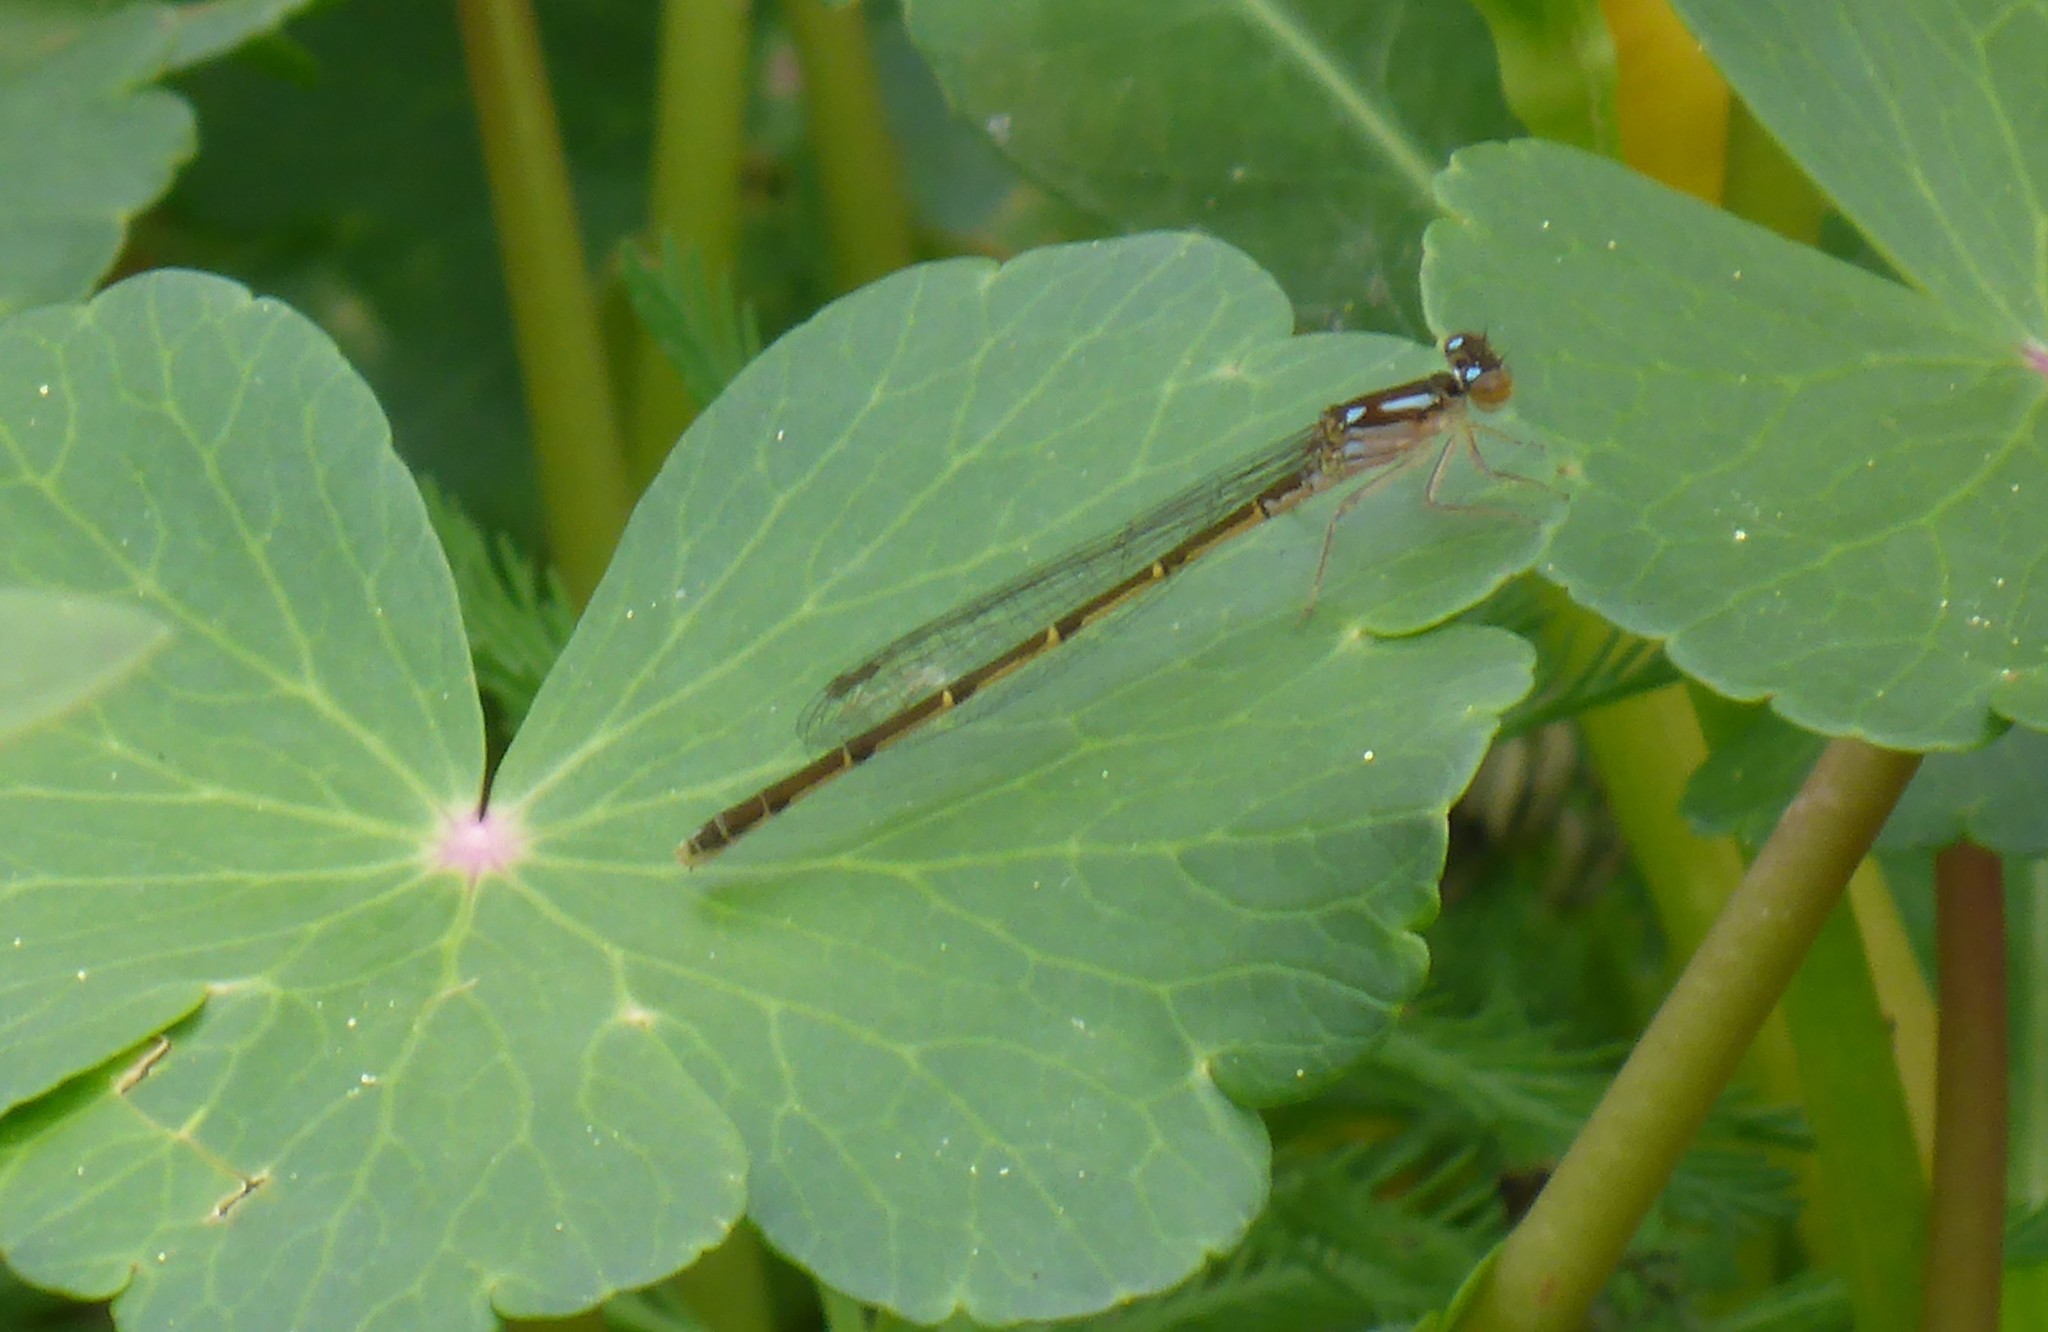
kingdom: Animalia
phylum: Arthropoda
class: Insecta
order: Odonata
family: Coenagrionidae
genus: Ischnura
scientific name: Ischnura posita
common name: Fragile forktail
